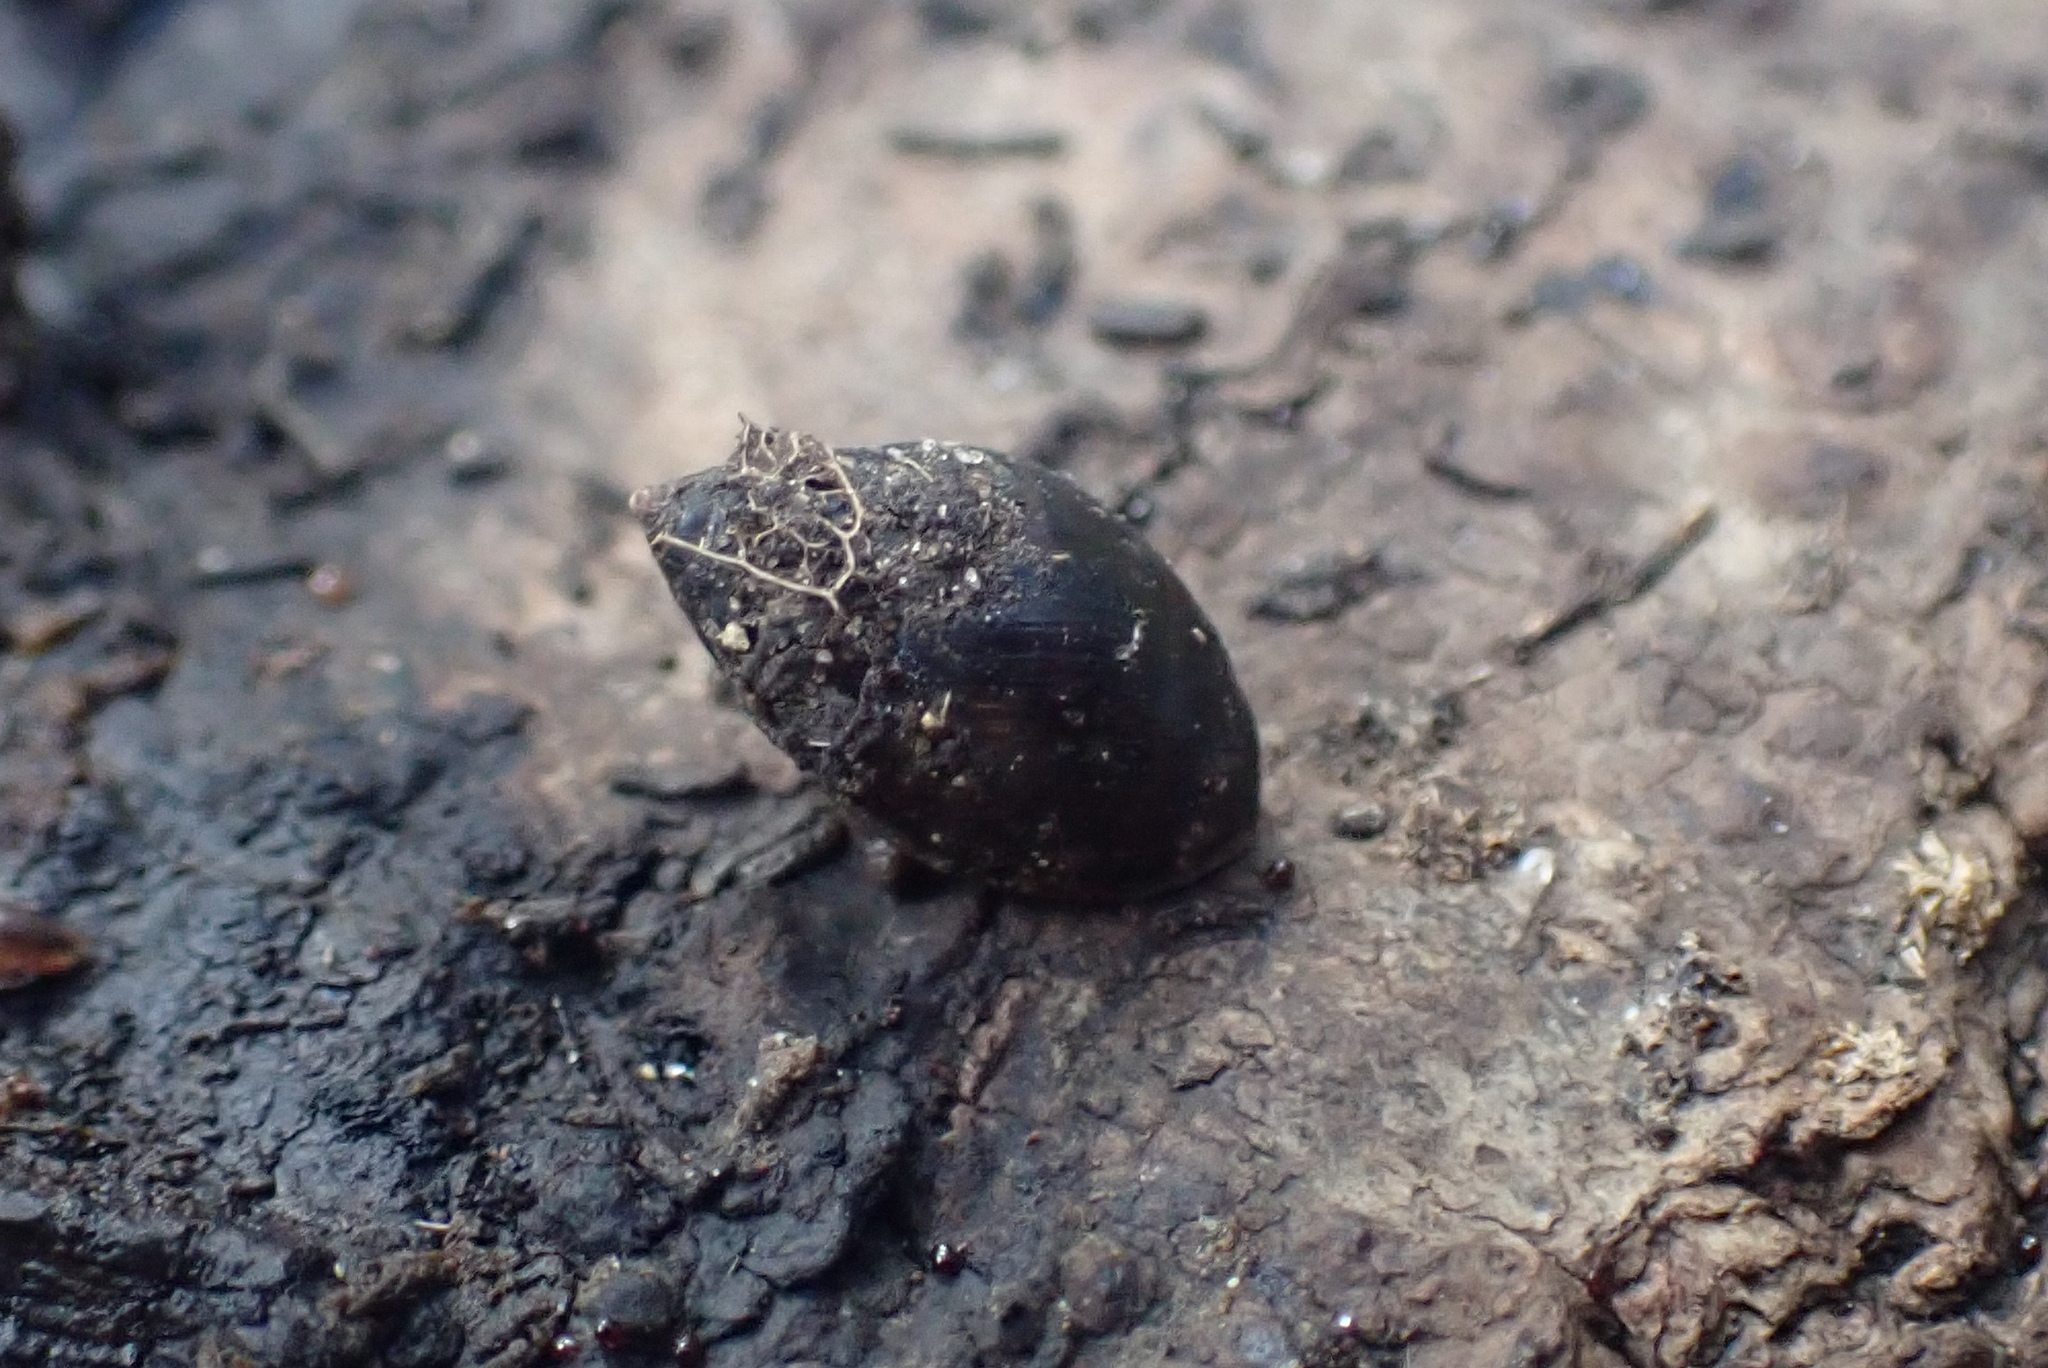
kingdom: Animalia
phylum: Mollusca
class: Gastropoda
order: Ellobiida
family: Ellobiidae
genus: Pleuroloba
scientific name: Pleuroloba costellaris
